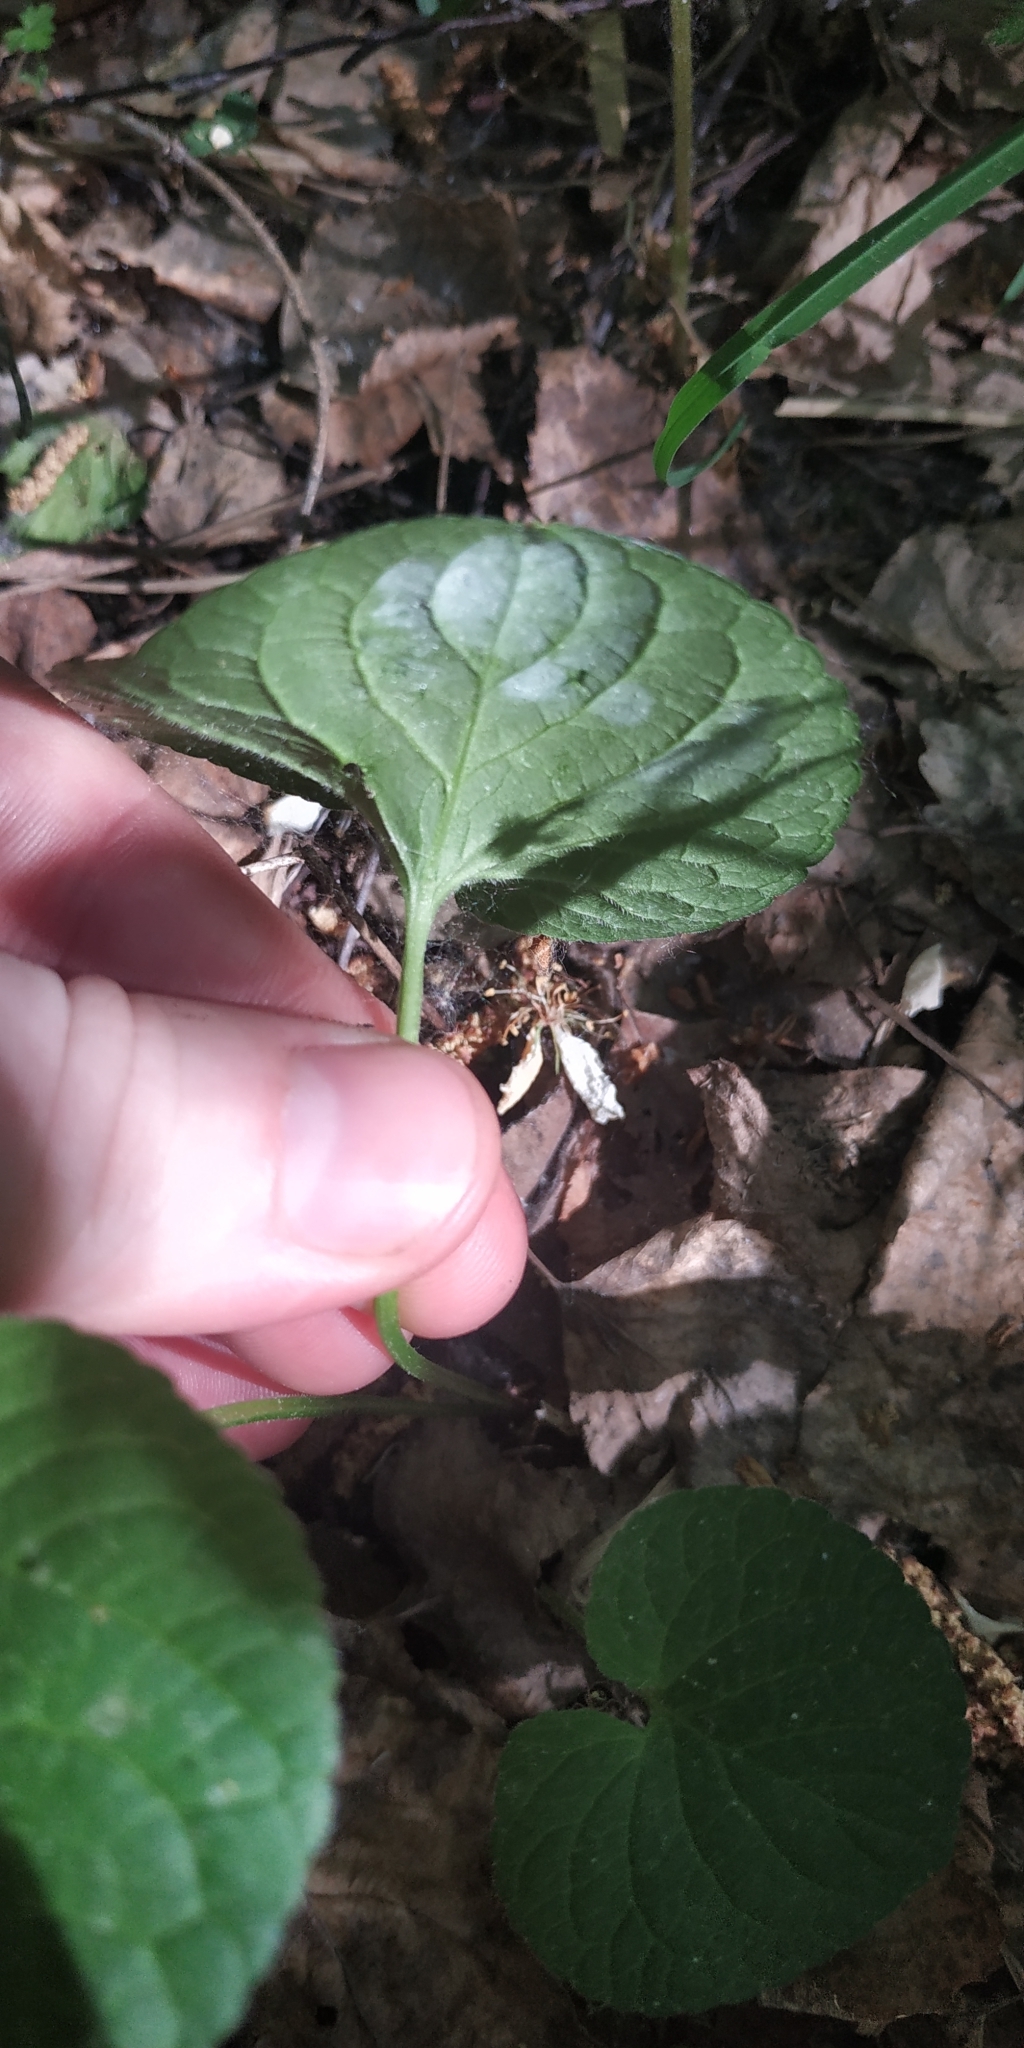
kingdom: Plantae
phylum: Tracheophyta
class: Magnoliopsida
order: Malpighiales
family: Violaceae
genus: Viola
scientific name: Viola mirabilis
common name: Wonder violet
